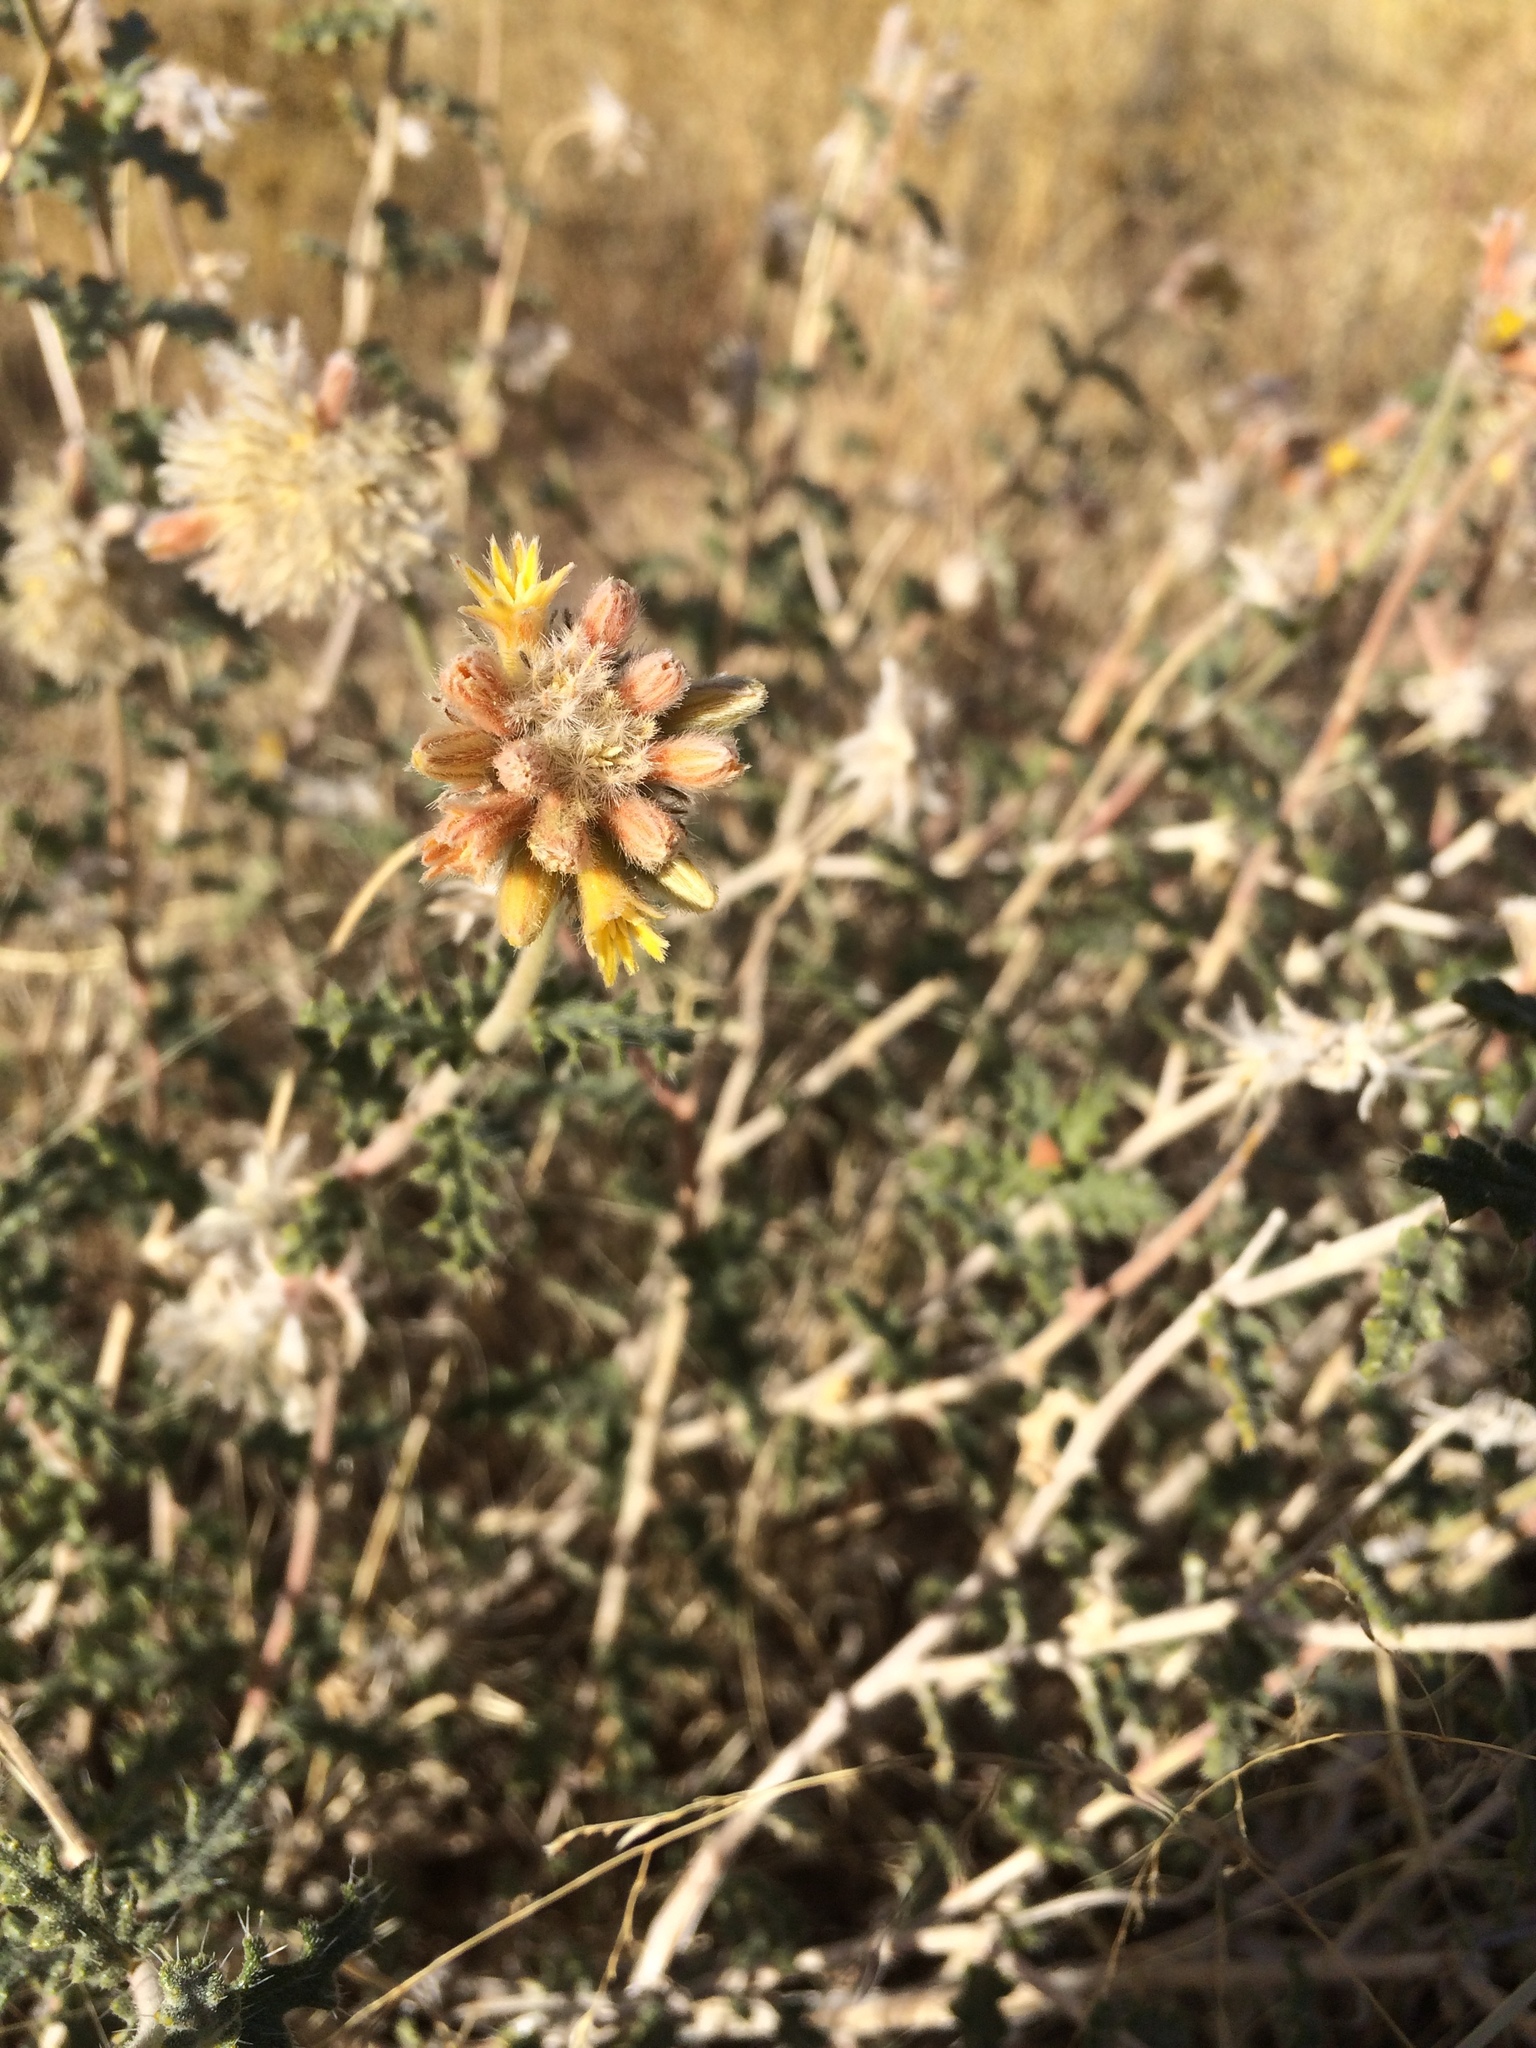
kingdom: Plantae
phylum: Tracheophyta
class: Magnoliopsida
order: Cornales
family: Loasaceae
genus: Cevallia
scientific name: Cevallia sinuata
